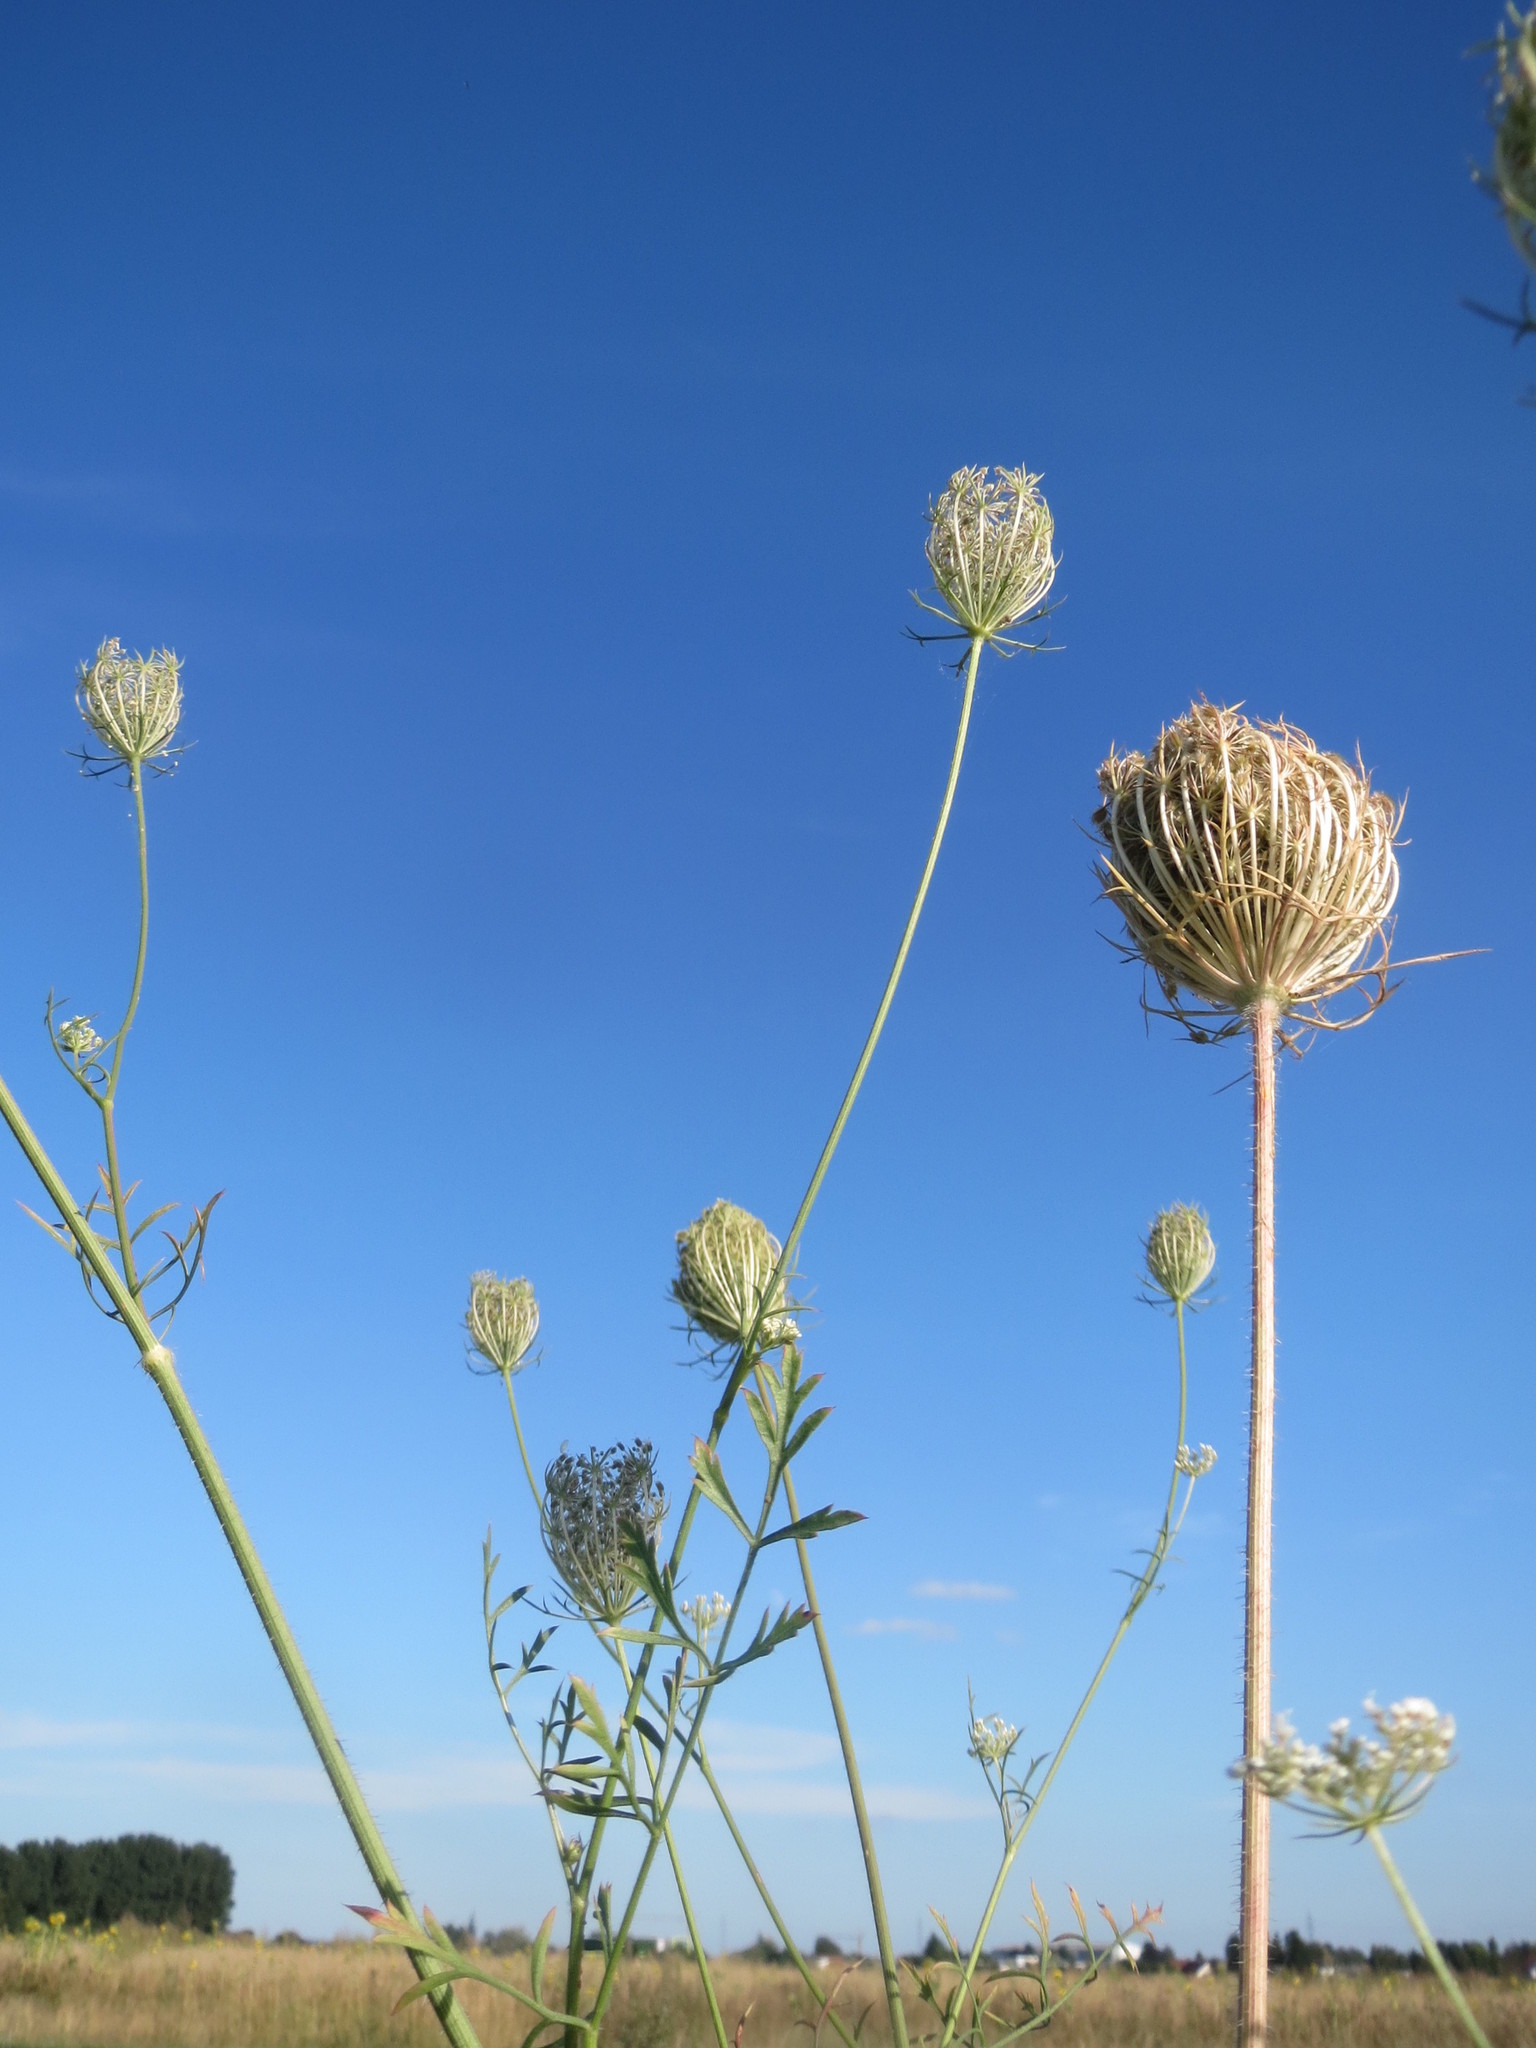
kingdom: Plantae
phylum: Tracheophyta
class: Magnoliopsida
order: Apiales
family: Apiaceae
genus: Daucus
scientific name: Daucus carota
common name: Wild carrot
